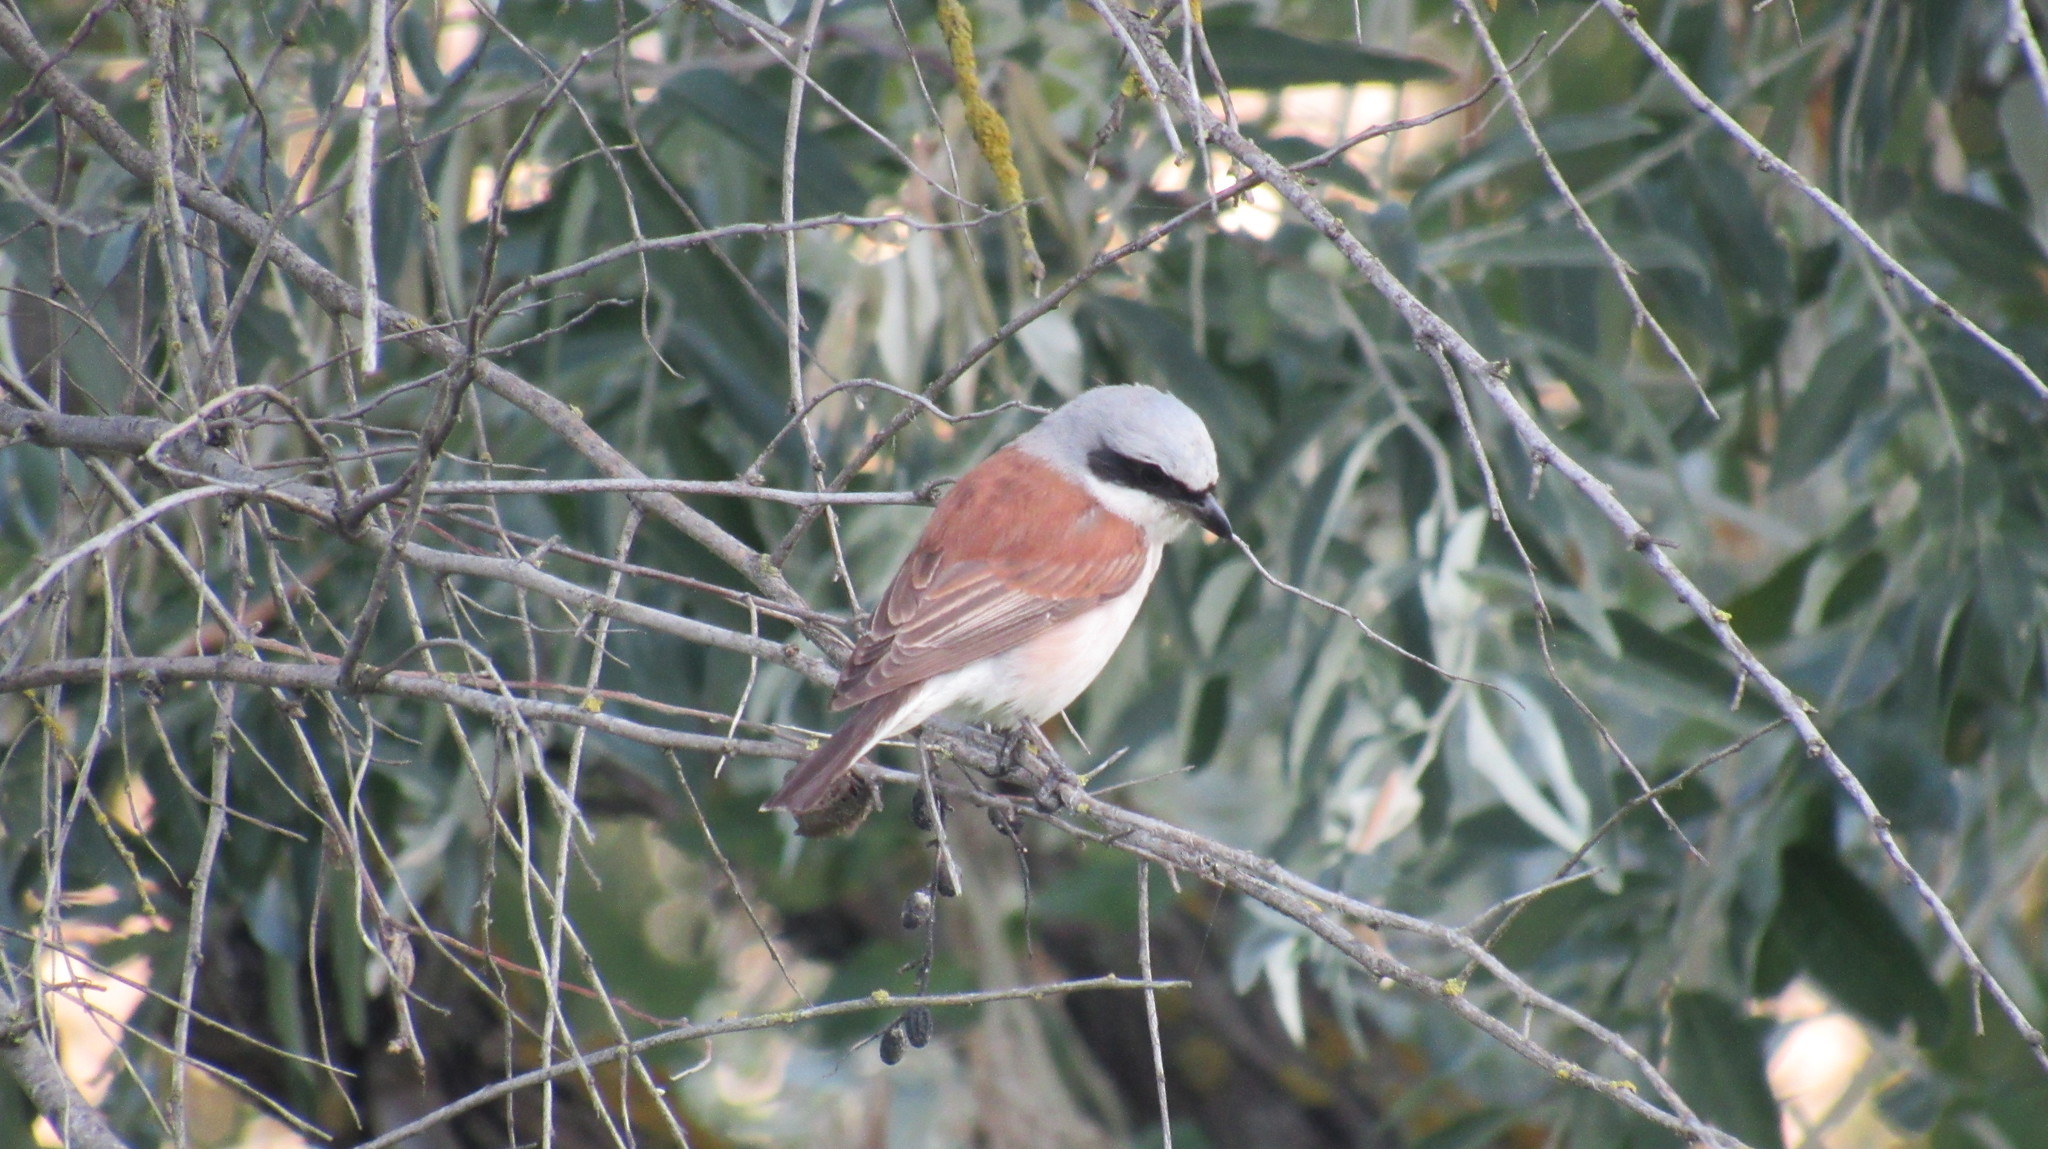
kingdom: Animalia
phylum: Chordata
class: Aves
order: Passeriformes
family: Laniidae
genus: Lanius
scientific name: Lanius collurio
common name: Red-backed shrike
